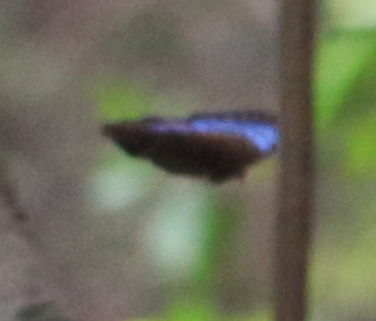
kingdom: Animalia
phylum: Arthropoda
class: Insecta
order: Lepidoptera
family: Nymphalidae
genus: Morpho
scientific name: Morpho helenor
